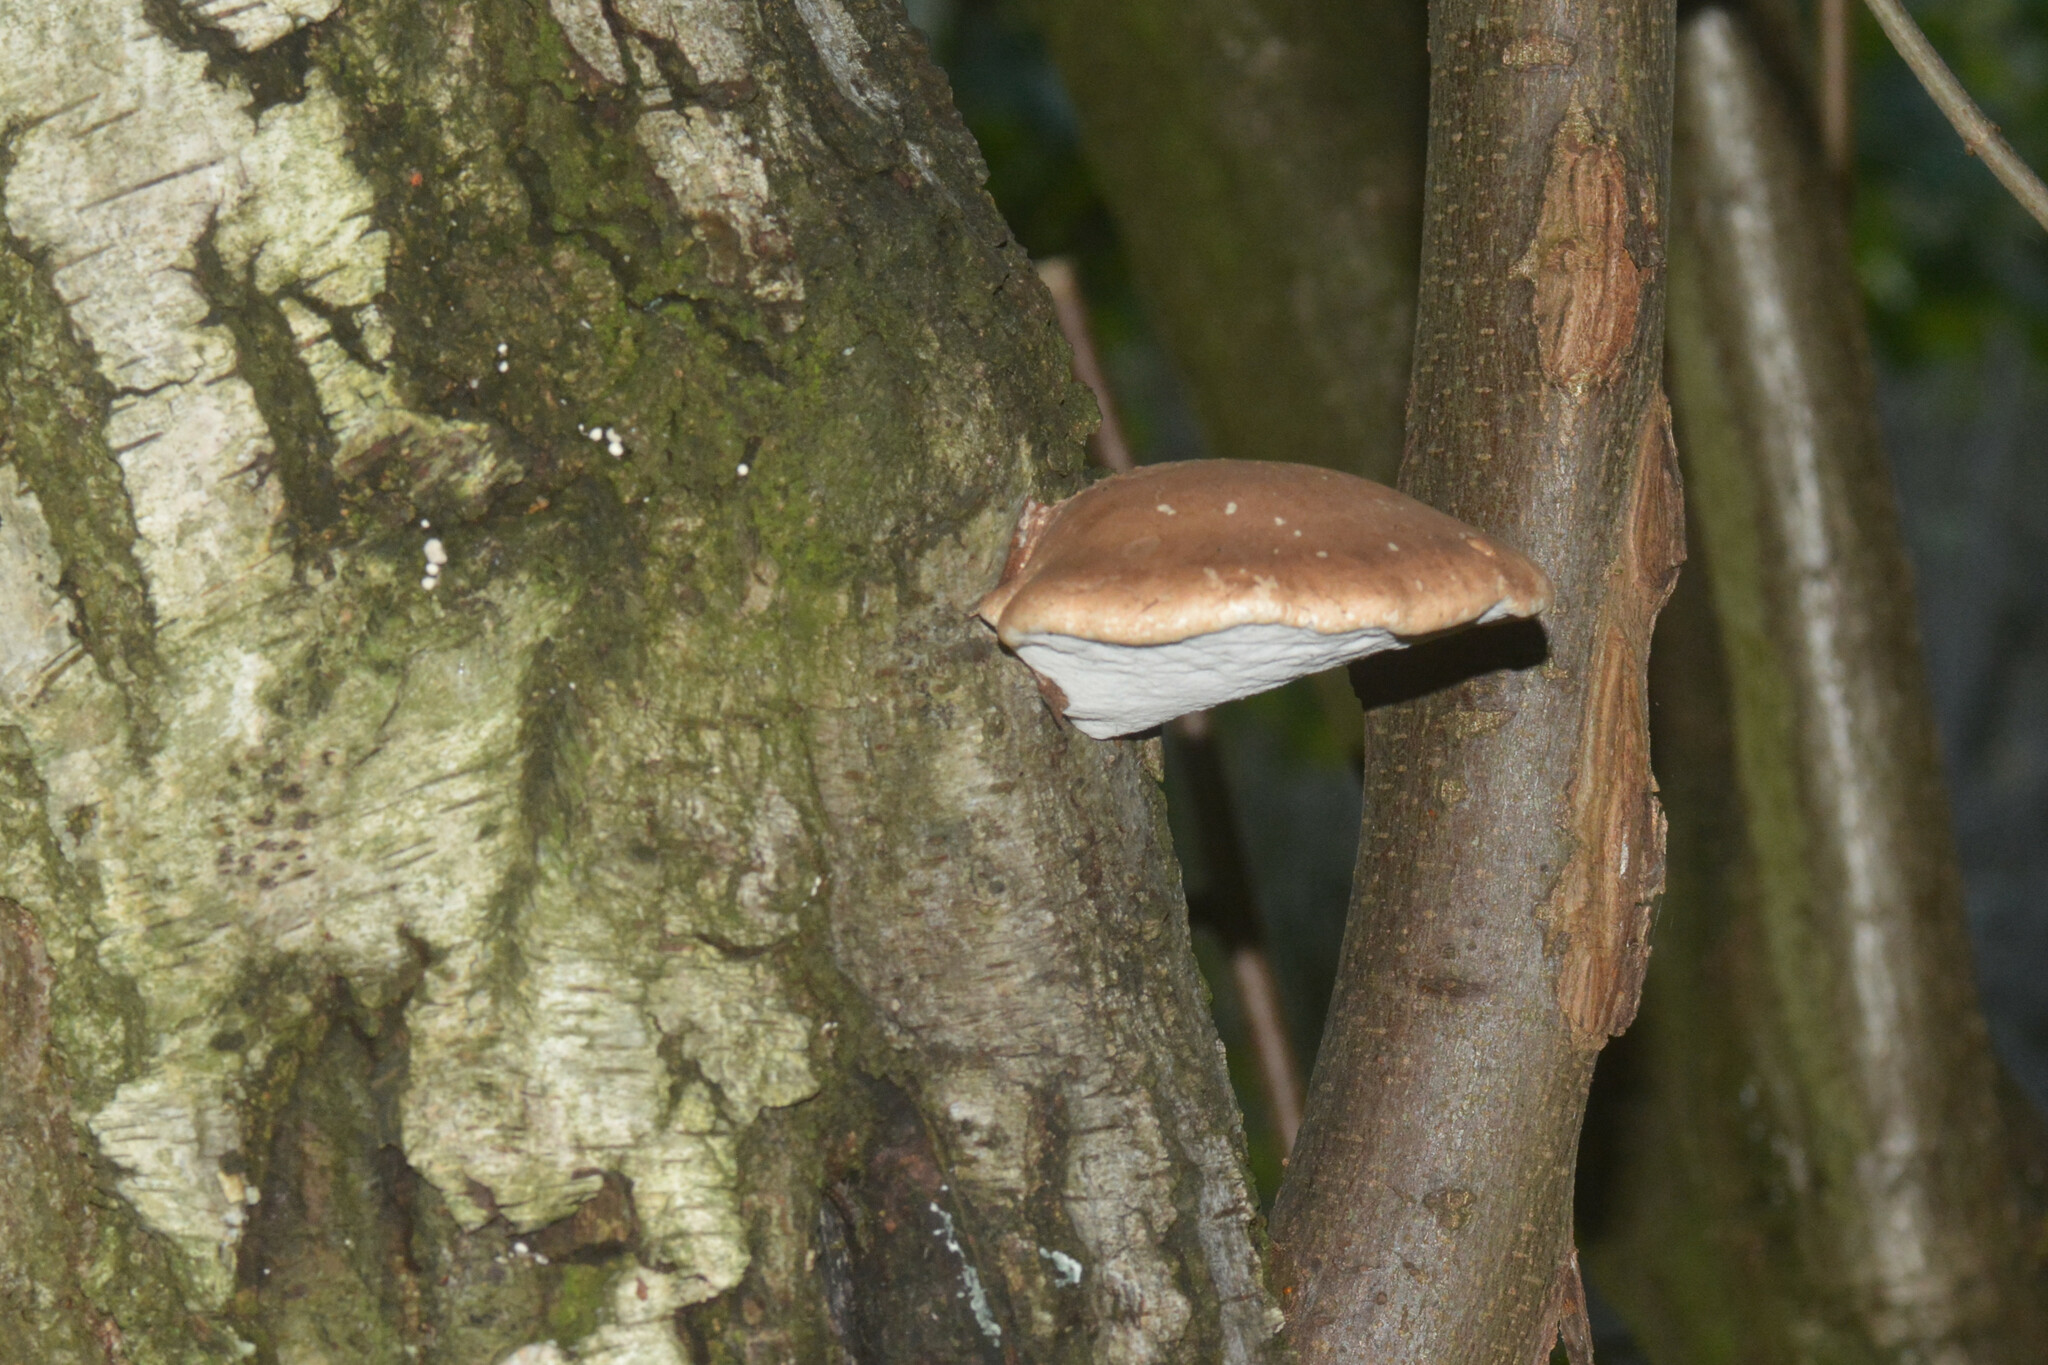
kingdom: Fungi
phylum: Basidiomycota
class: Agaricomycetes
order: Polyporales
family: Fomitopsidaceae
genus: Fomitopsis
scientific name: Fomitopsis betulina
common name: Birch polypore
